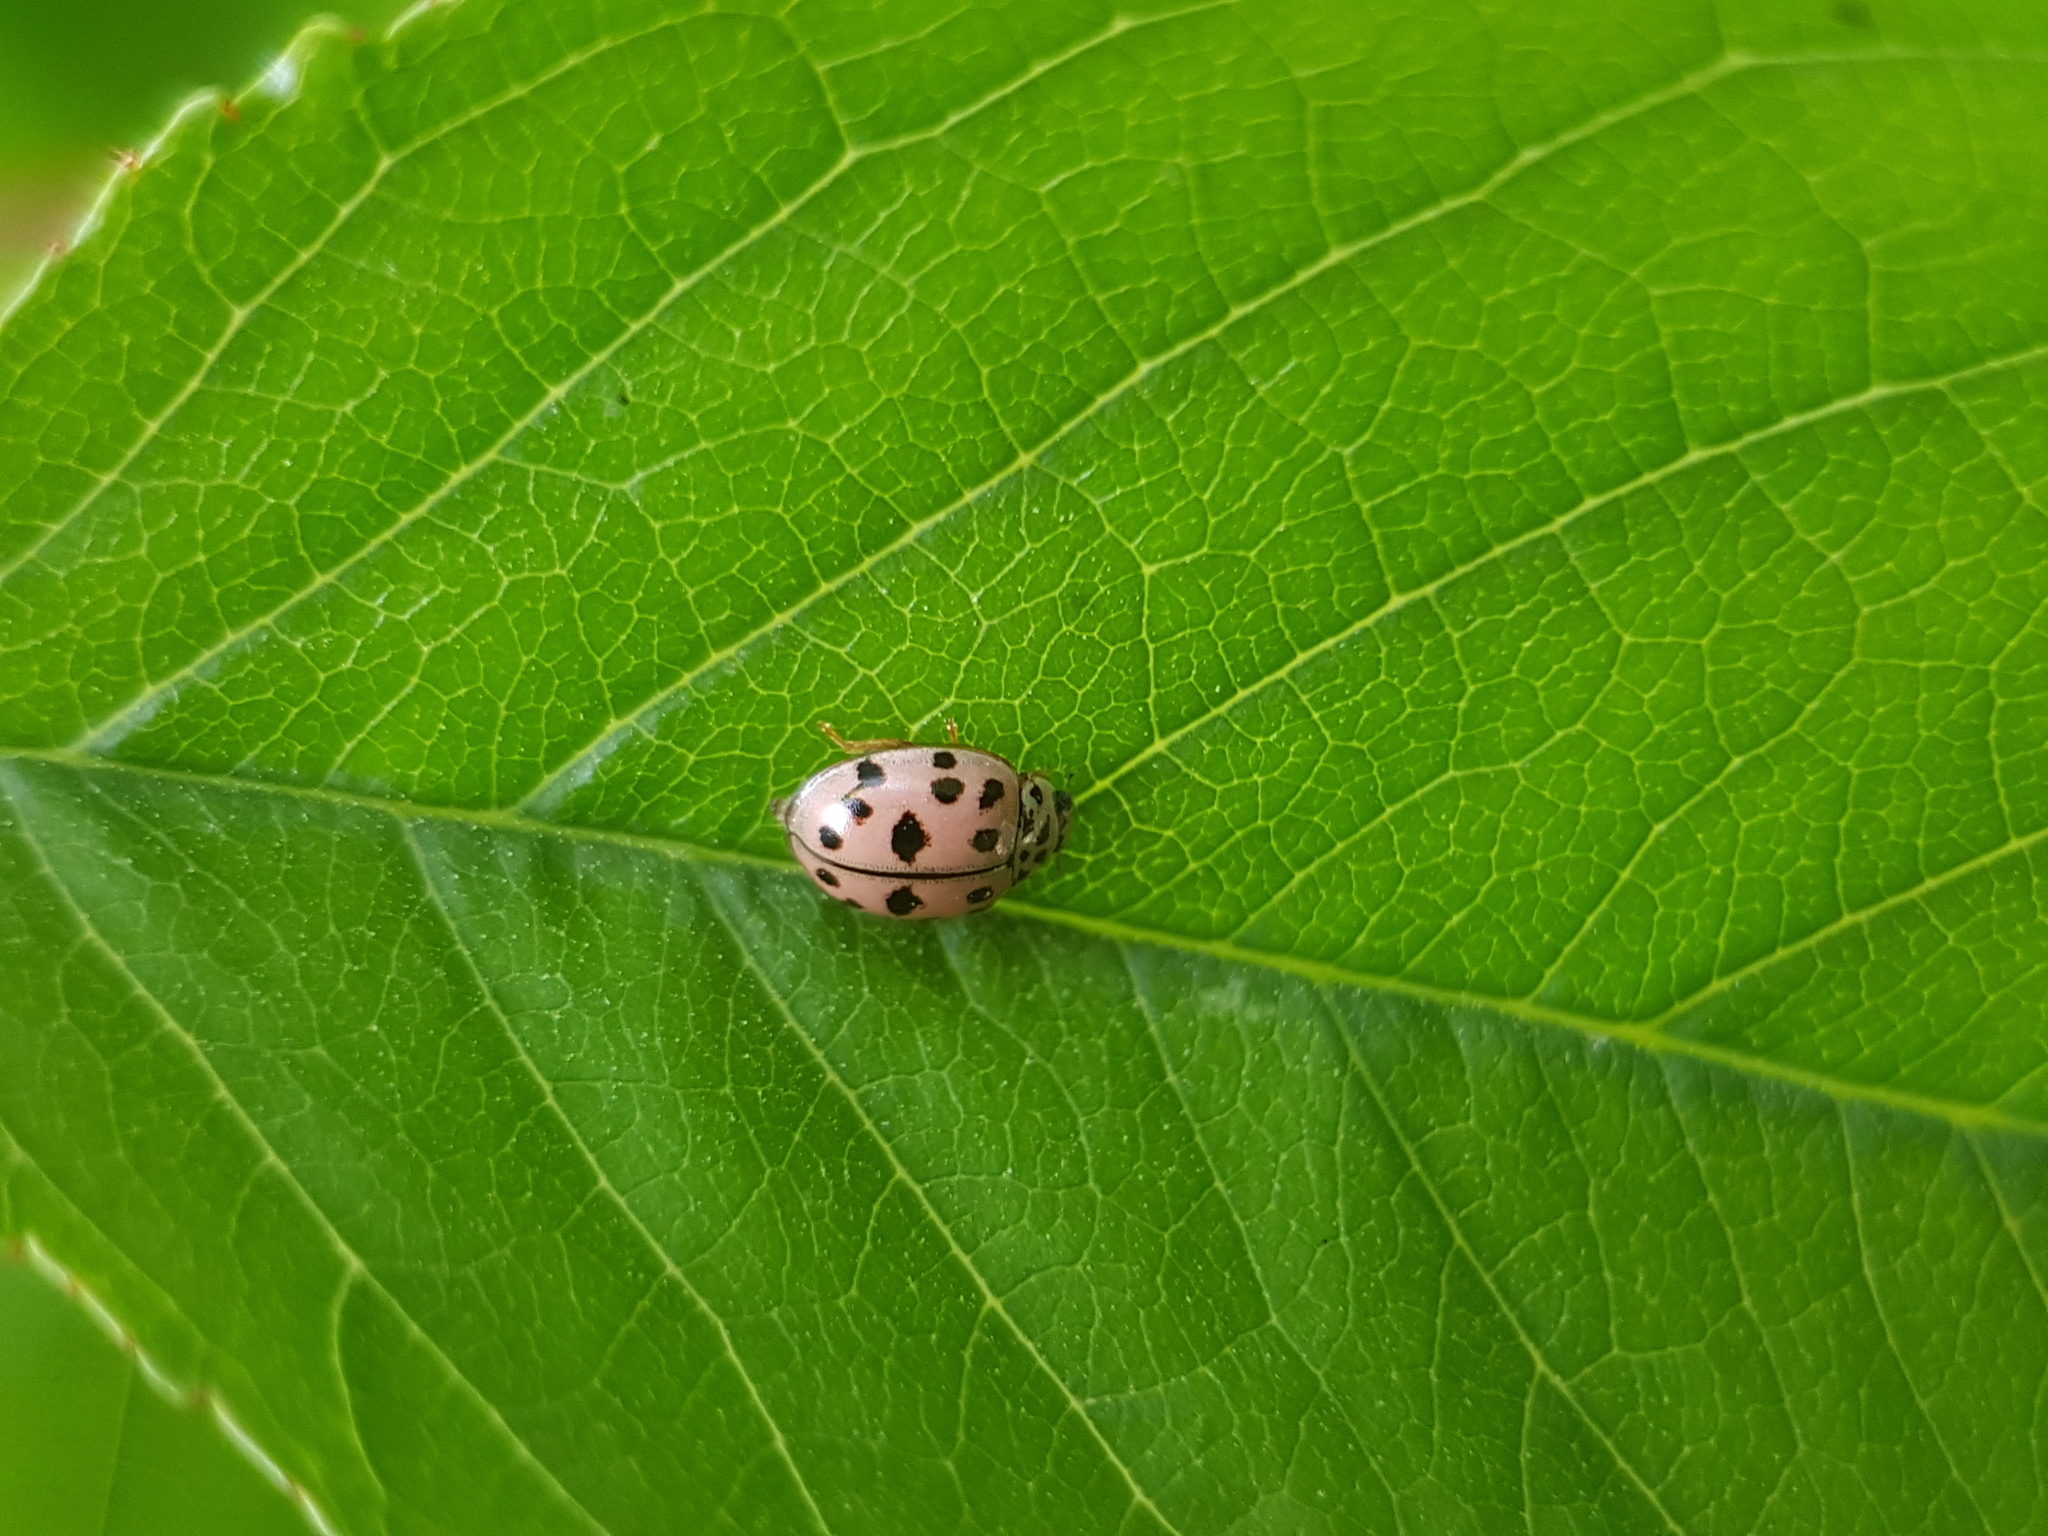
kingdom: Animalia
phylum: Arthropoda
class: Insecta
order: Coleoptera
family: Coccinellidae
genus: Oenopia
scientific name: Oenopia conglobata
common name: Ladybird beetle
